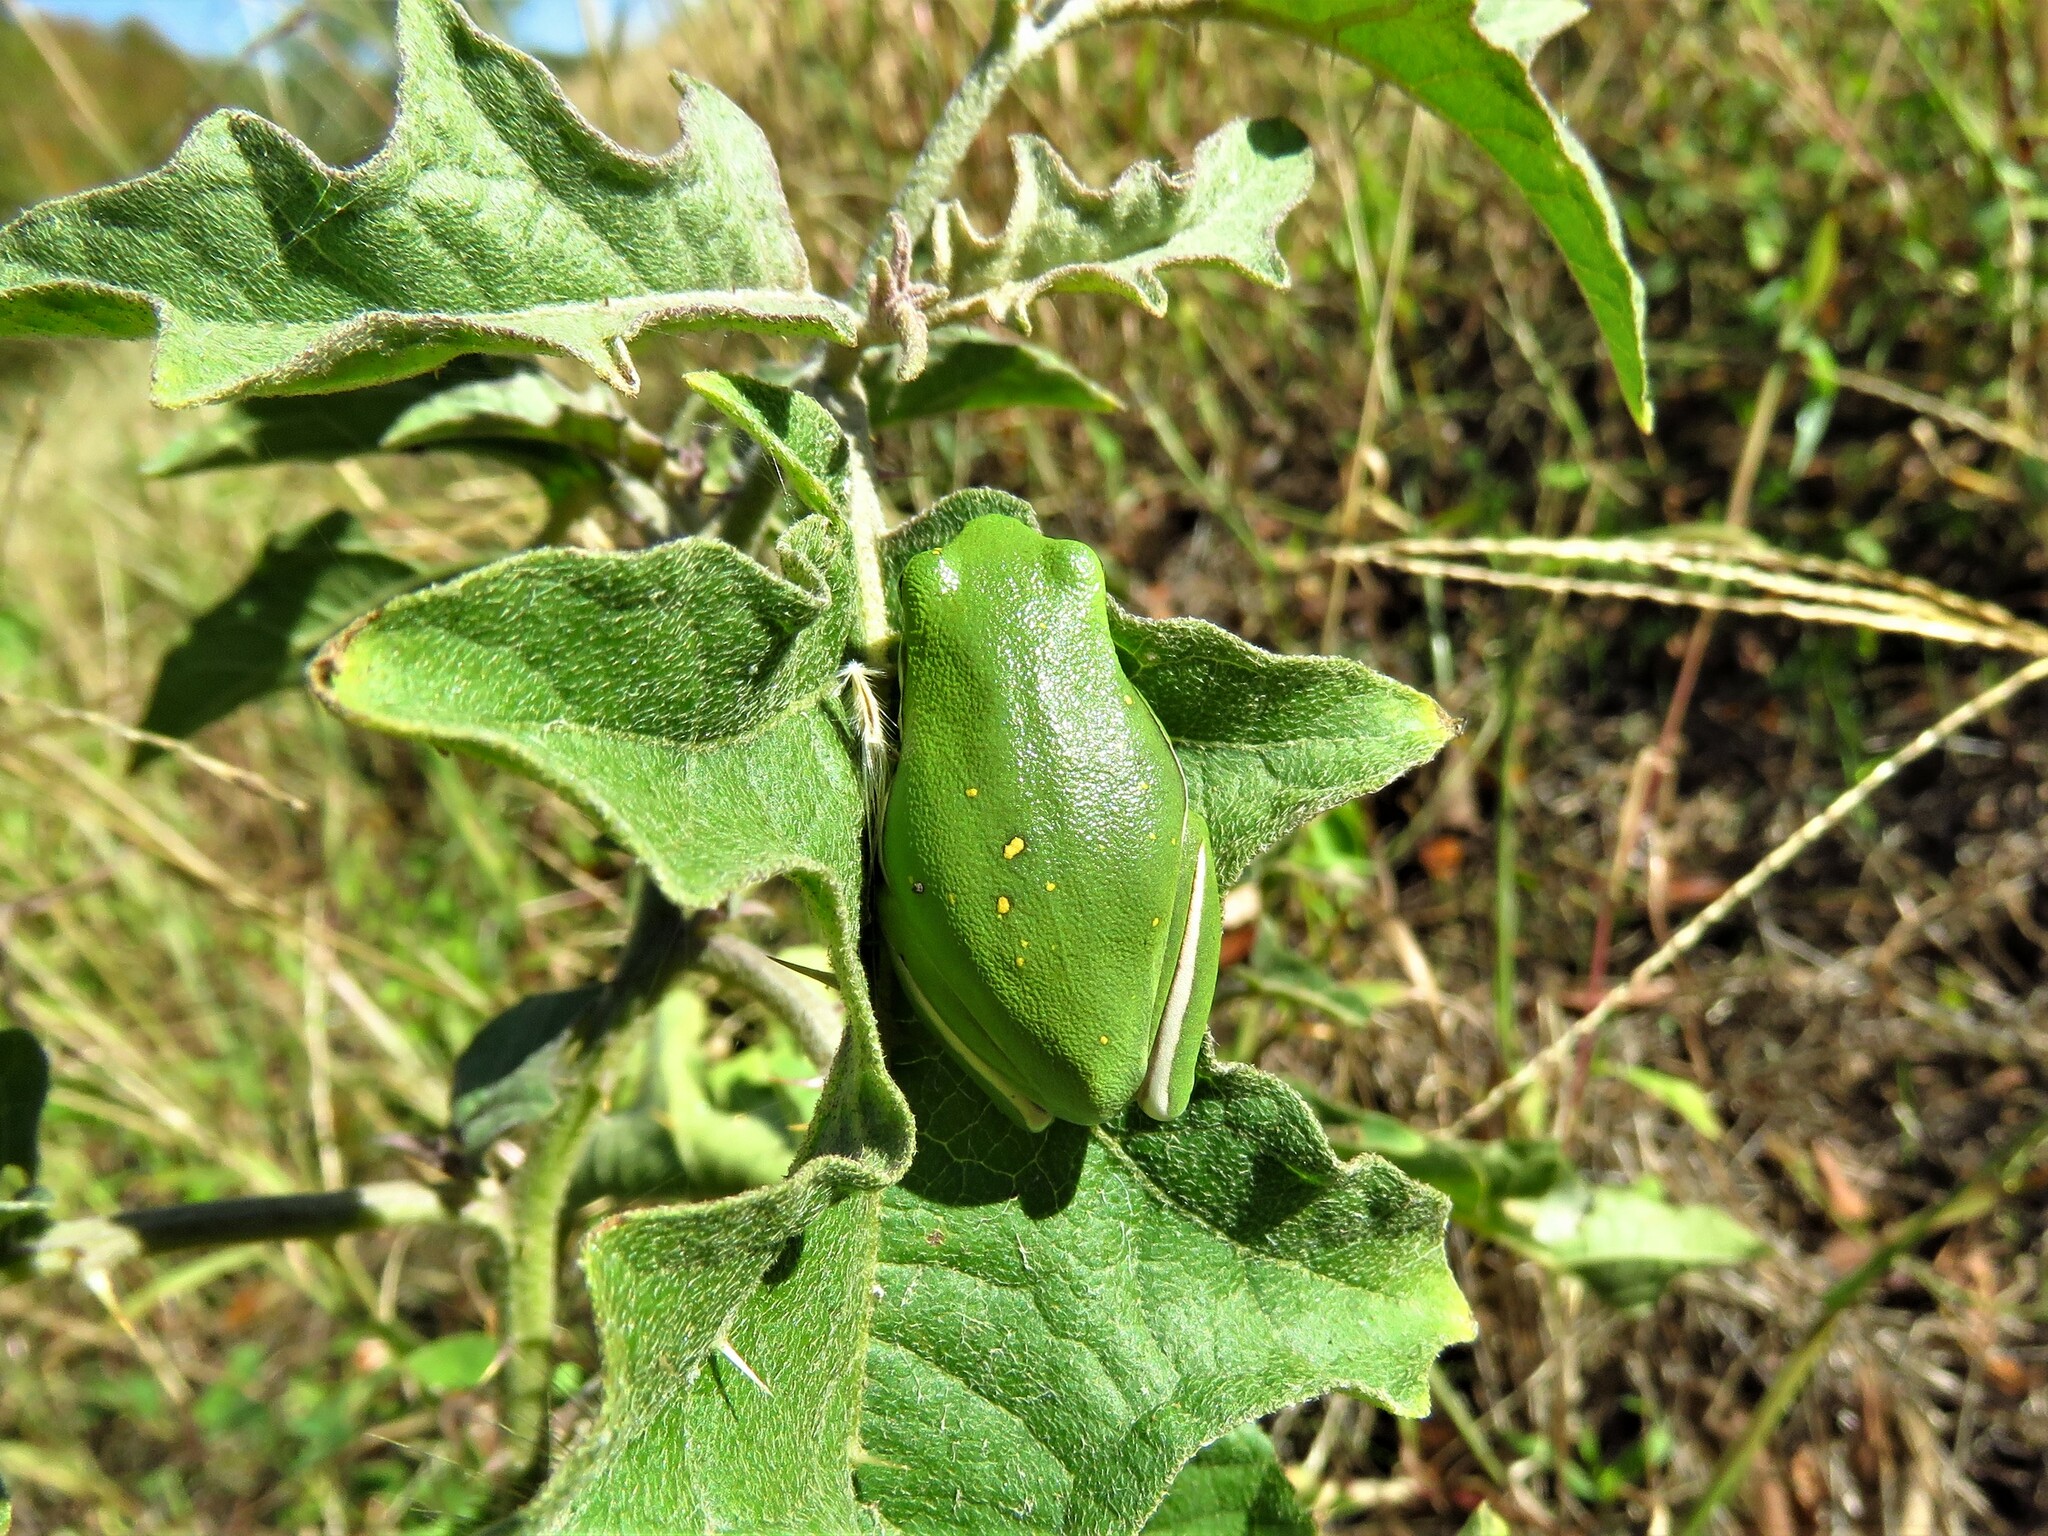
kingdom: Animalia
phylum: Chordata
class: Amphibia
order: Anura
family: Hylidae
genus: Dryophytes
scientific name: Dryophytes cinereus
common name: Green treefrog
